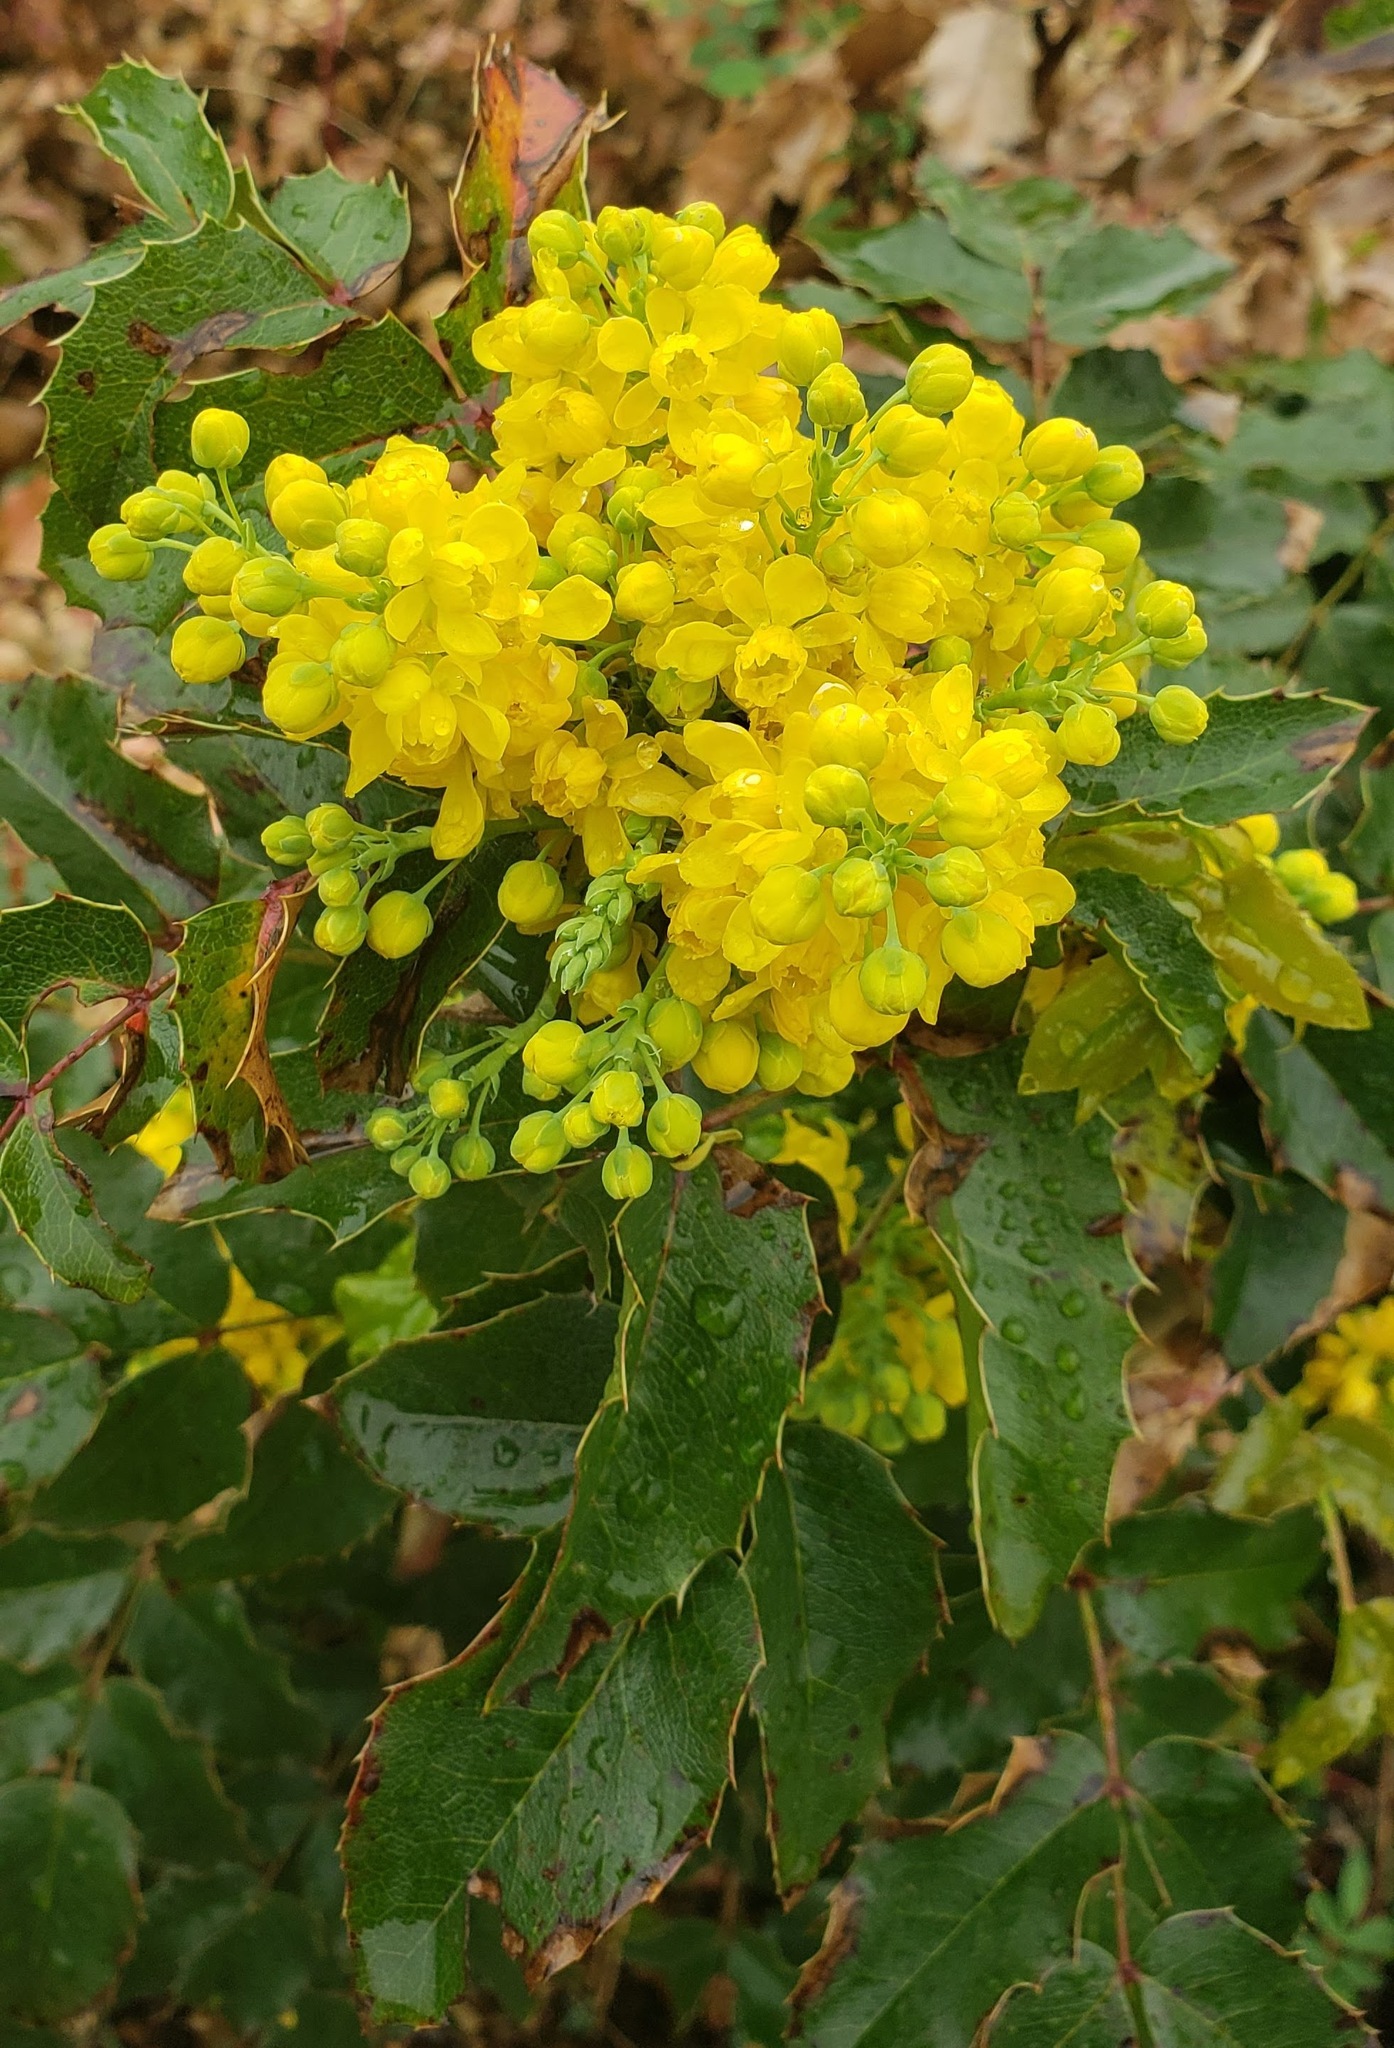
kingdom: Plantae
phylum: Tracheophyta
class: Magnoliopsida
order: Ranunculales
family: Berberidaceae
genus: Mahonia
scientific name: Mahonia aquifolium
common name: Oregon-grape
